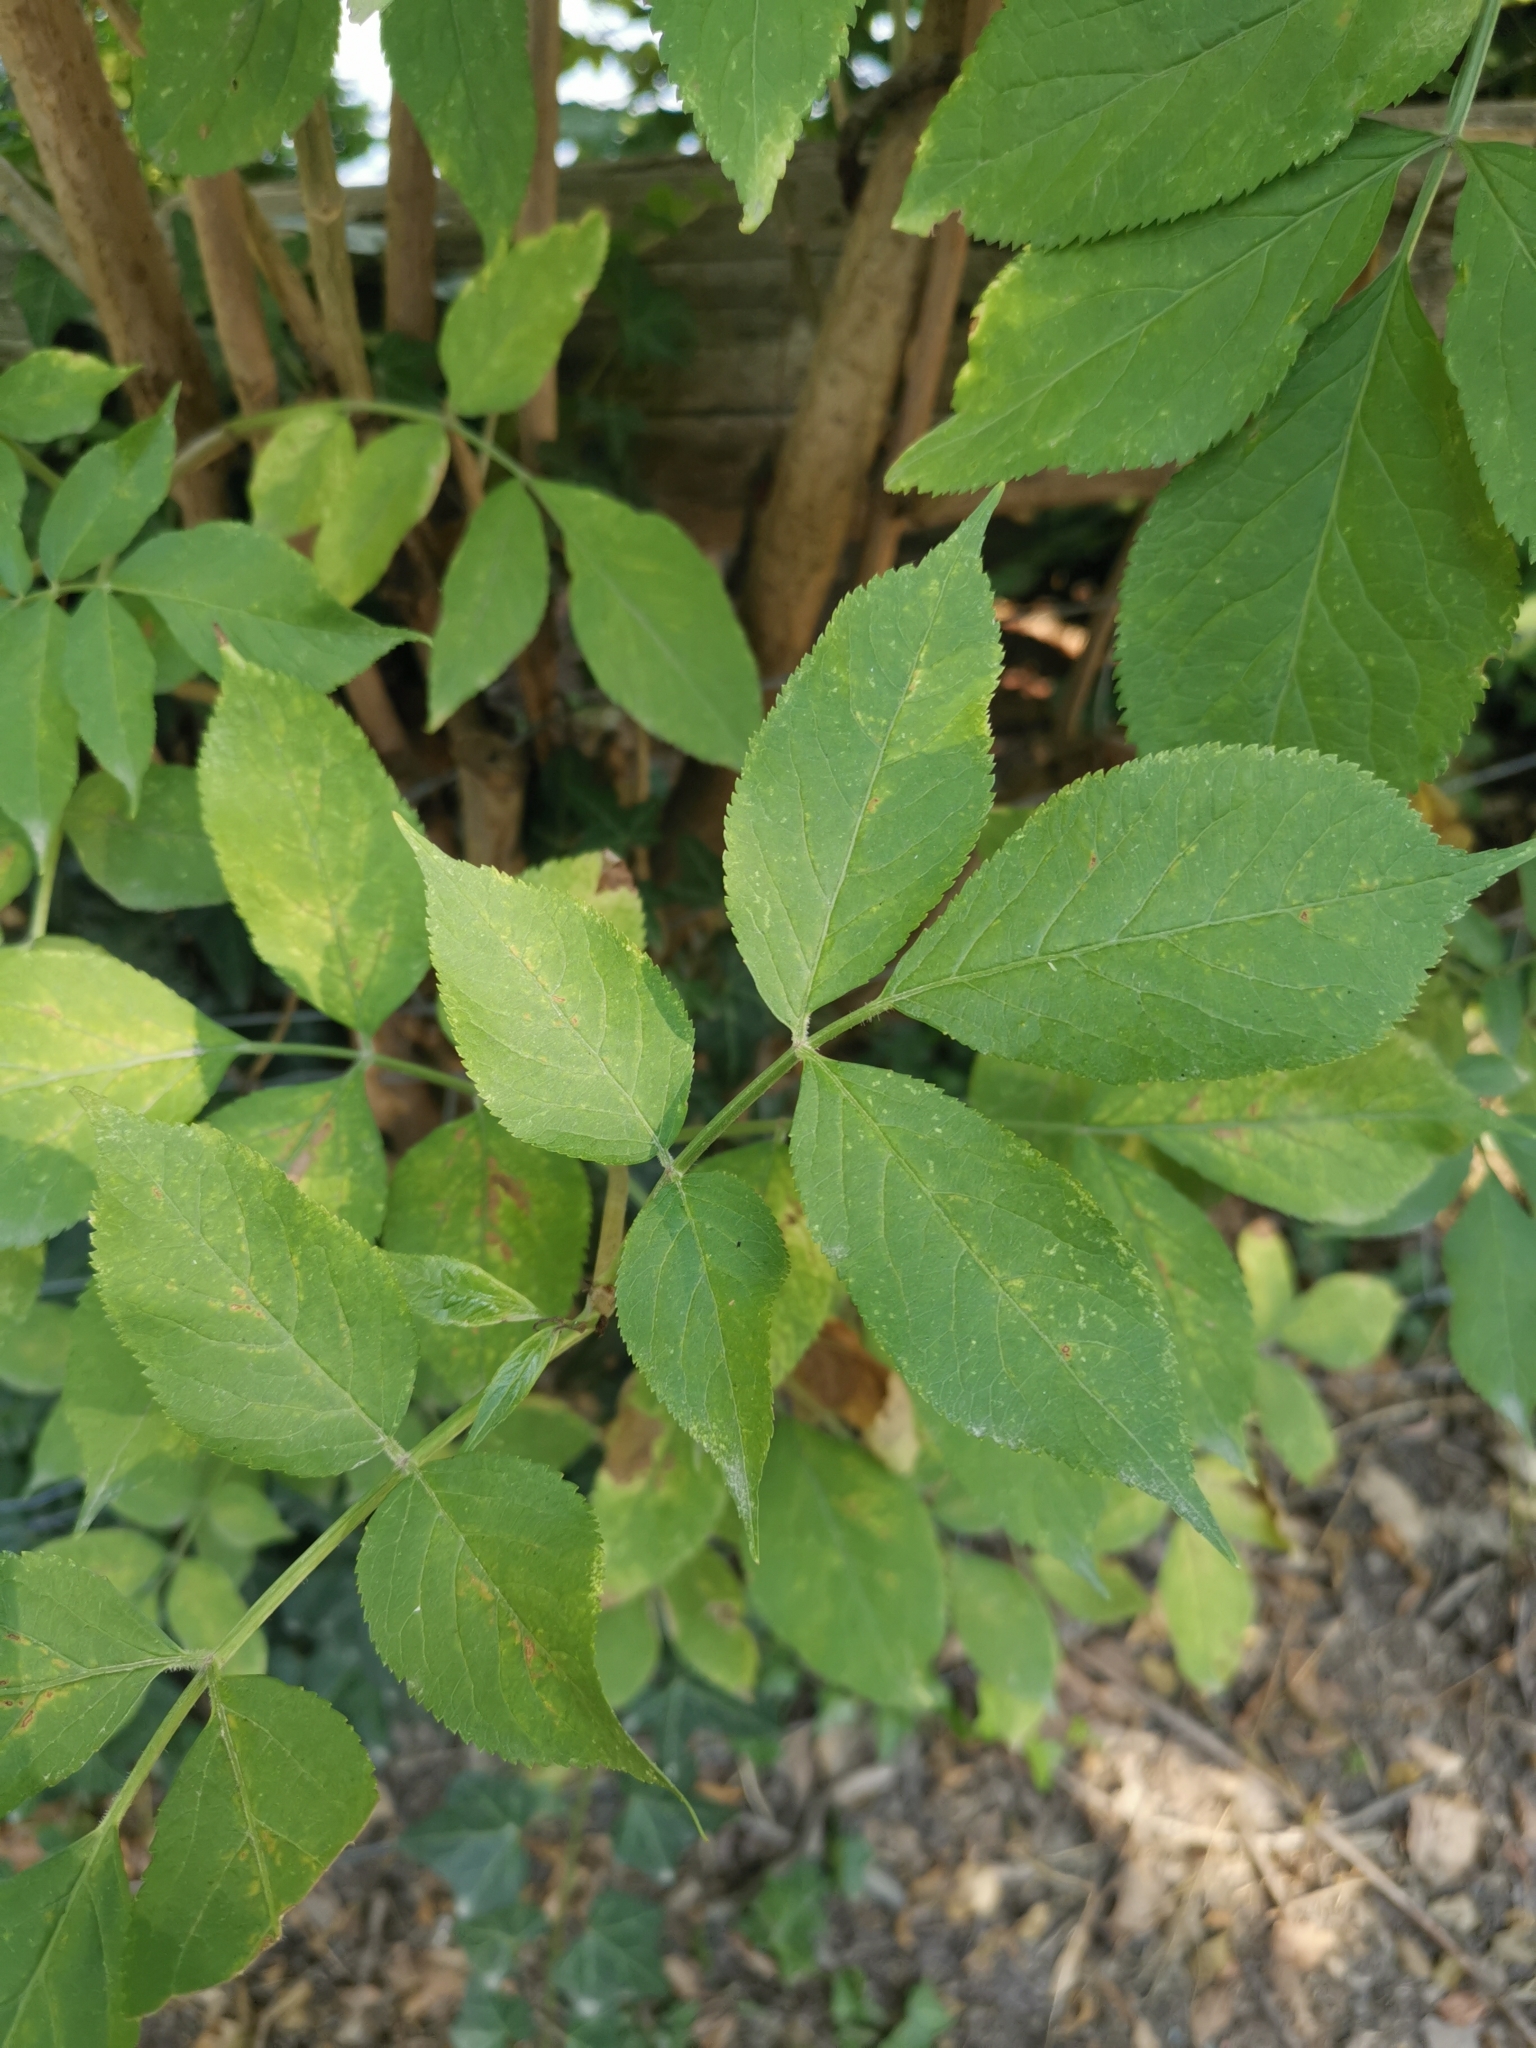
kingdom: Plantae
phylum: Tracheophyta
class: Magnoliopsida
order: Dipsacales
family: Viburnaceae
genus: Sambucus
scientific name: Sambucus nigra
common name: Elder
